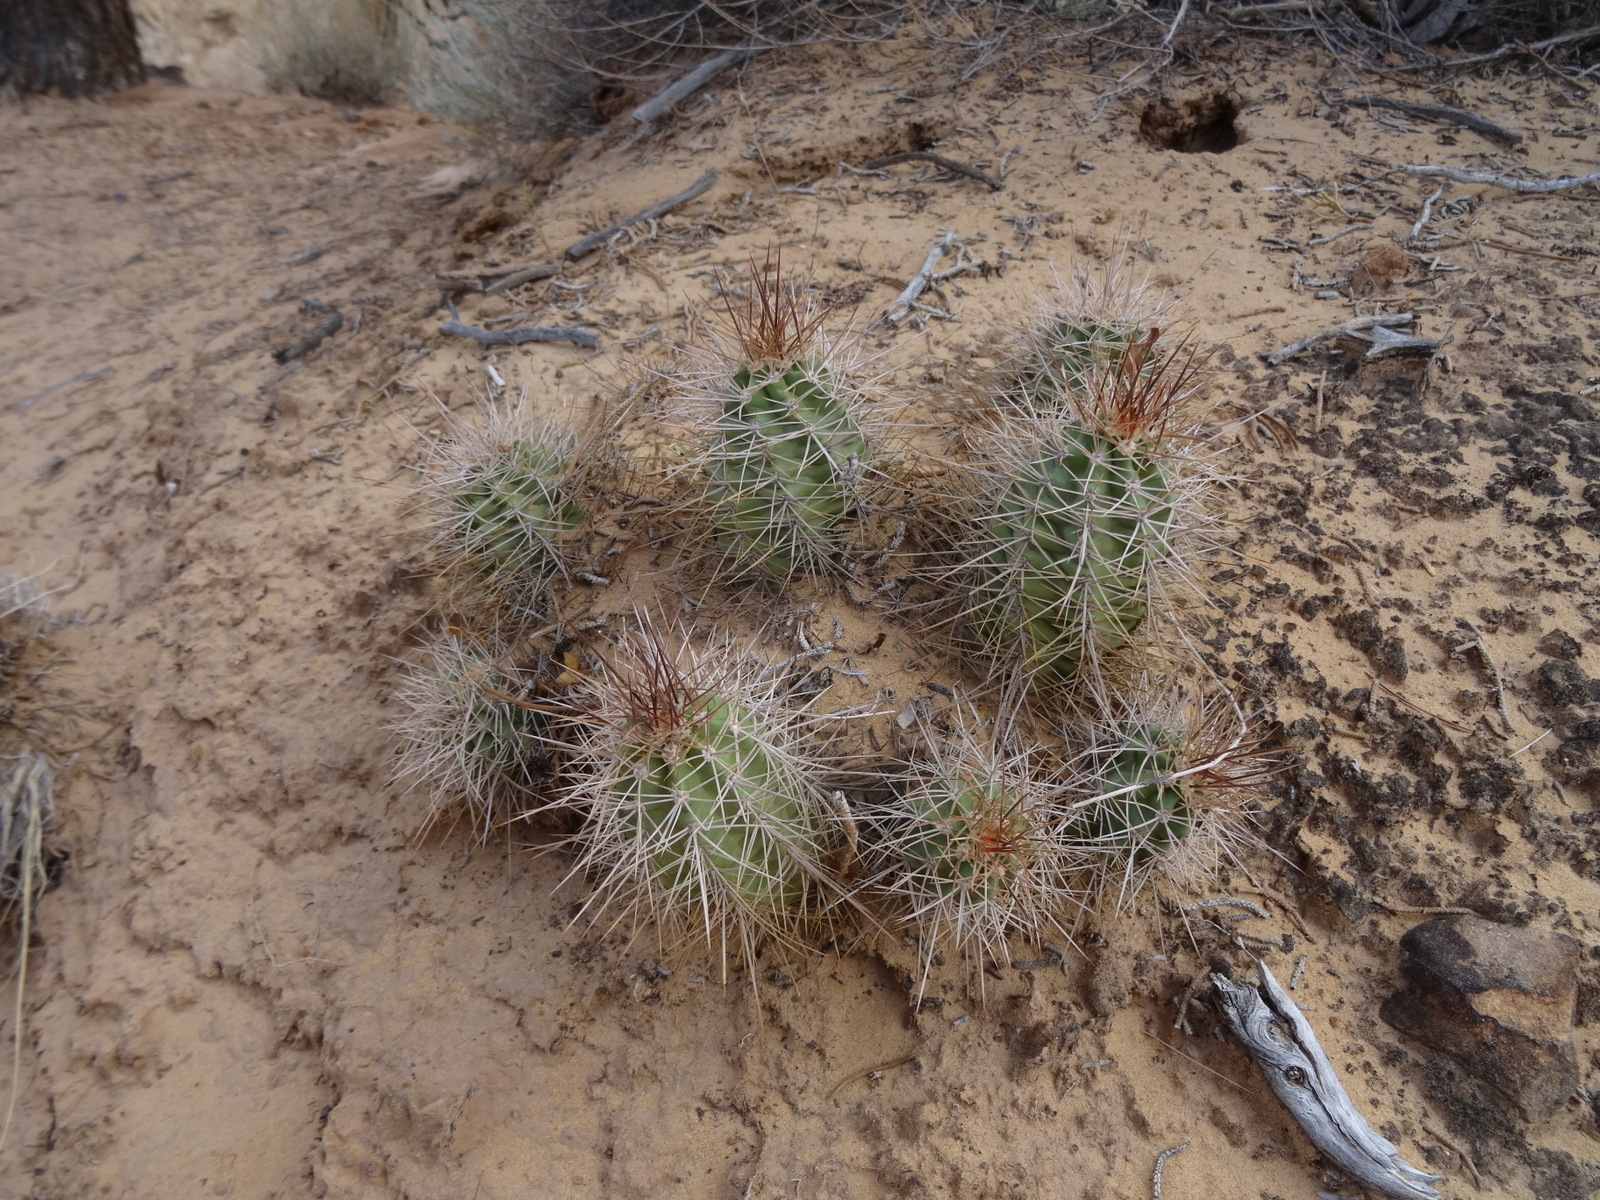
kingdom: Plantae
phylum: Tracheophyta
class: Magnoliopsida
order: Caryophyllales
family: Cactaceae
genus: Echinocereus
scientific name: Echinocereus triglochidiatus
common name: Claretcup hedgehog
